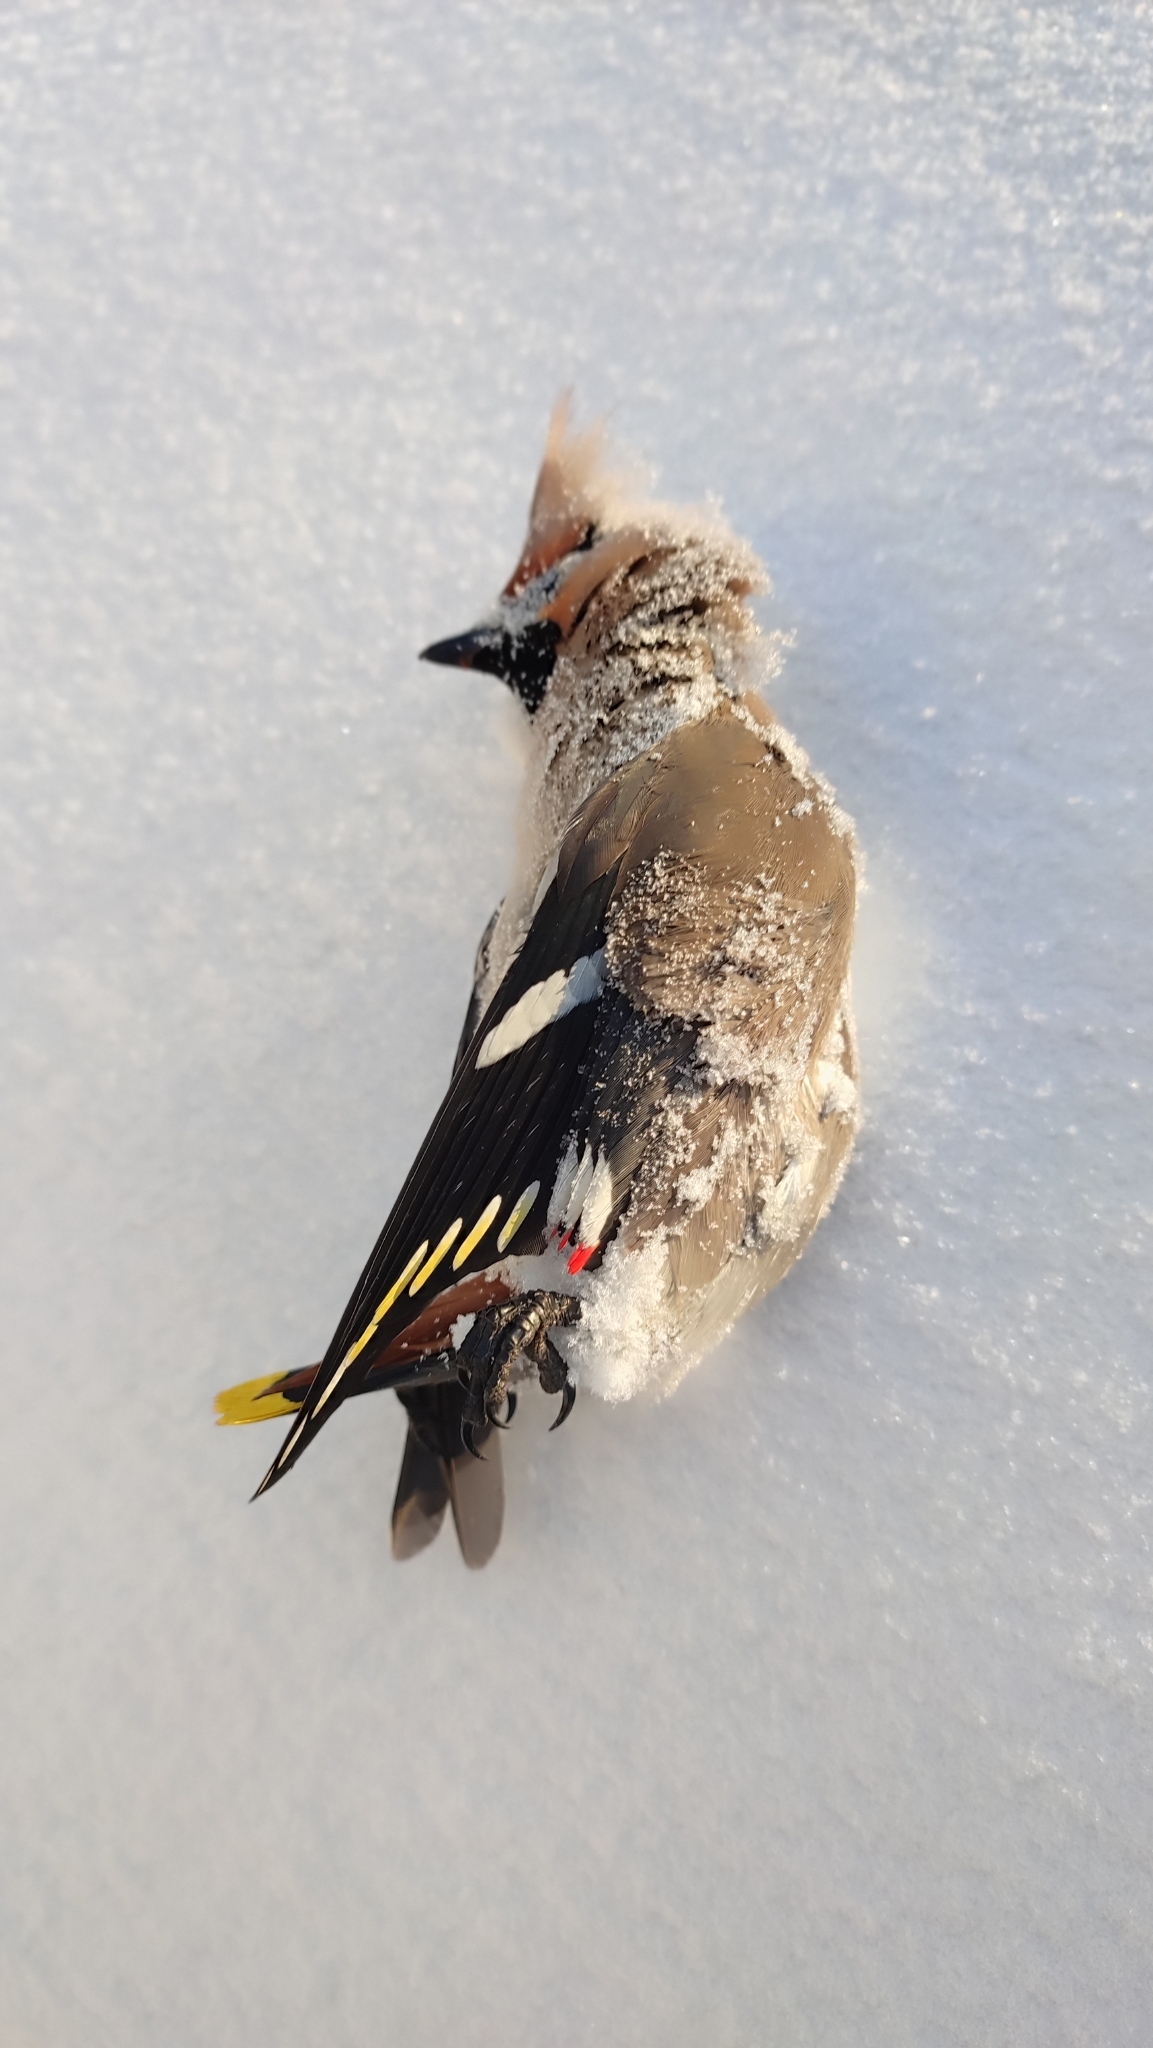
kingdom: Animalia
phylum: Chordata
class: Aves
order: Passeriformes
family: Bombycillidae
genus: Bombycilla
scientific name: Bombycilla garrulus
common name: Bohemian waxwing
